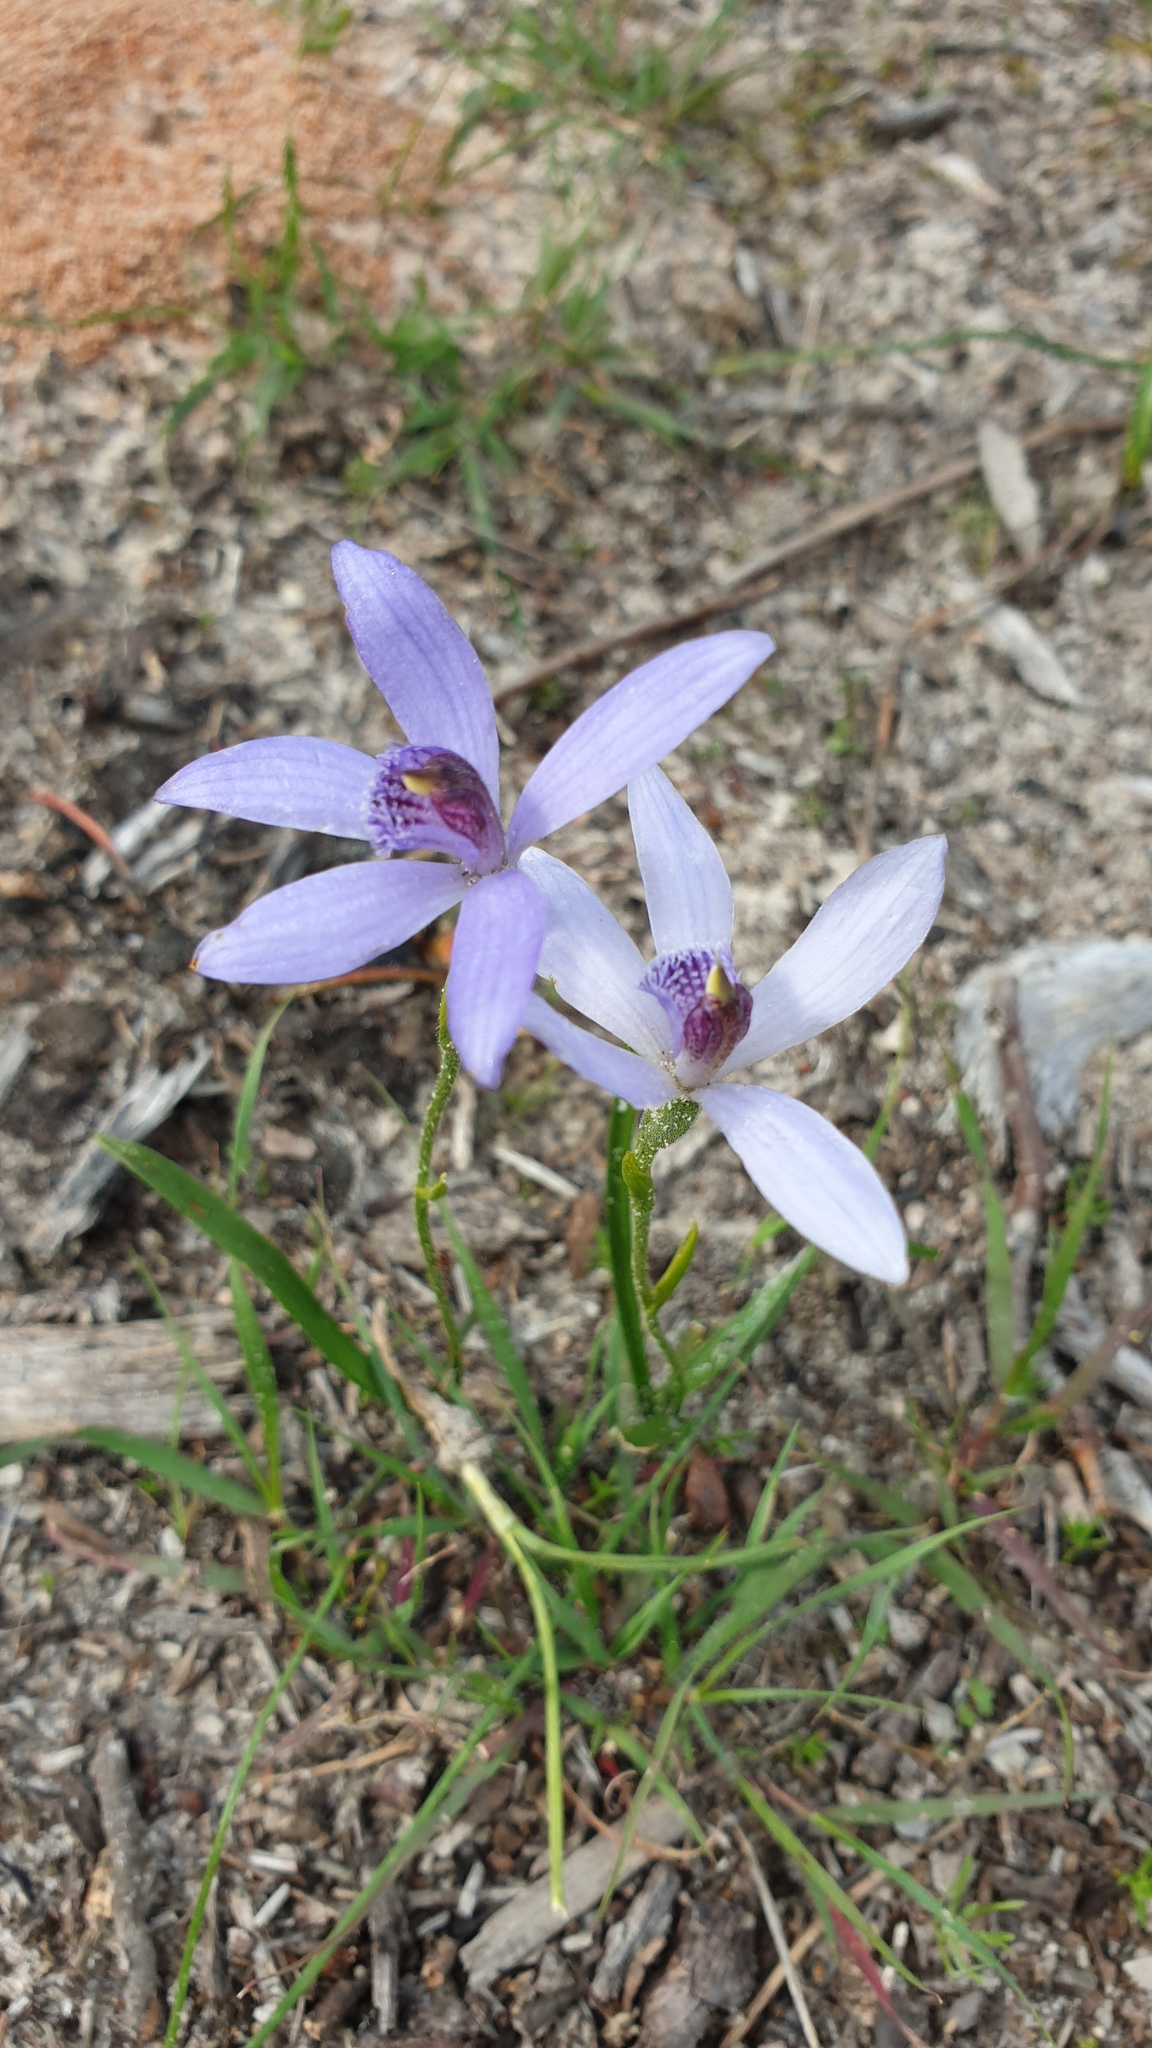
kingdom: Plantae
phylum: Tracheophyta
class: Liliopsida
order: Asparagales
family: Orchidaceae
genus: Pheladenia
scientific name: Pheladenia deformis
